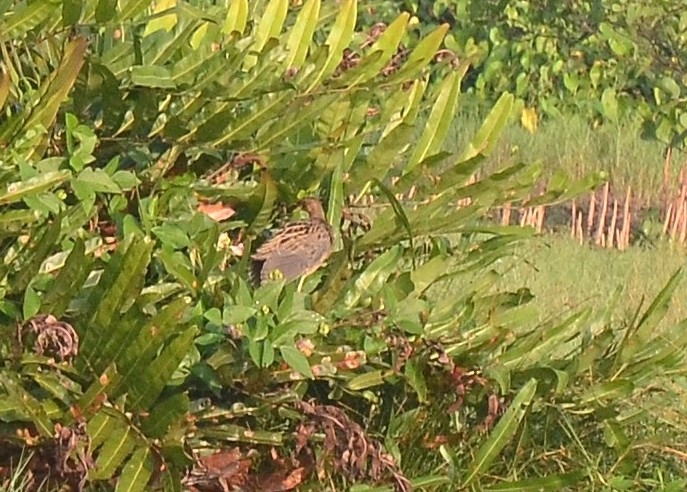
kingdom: Animalia
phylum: Chordata
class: Aves
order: Gruiformes
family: Rallidae
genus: Gallicrex
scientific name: Gallicrex cinerea
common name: Watercock
